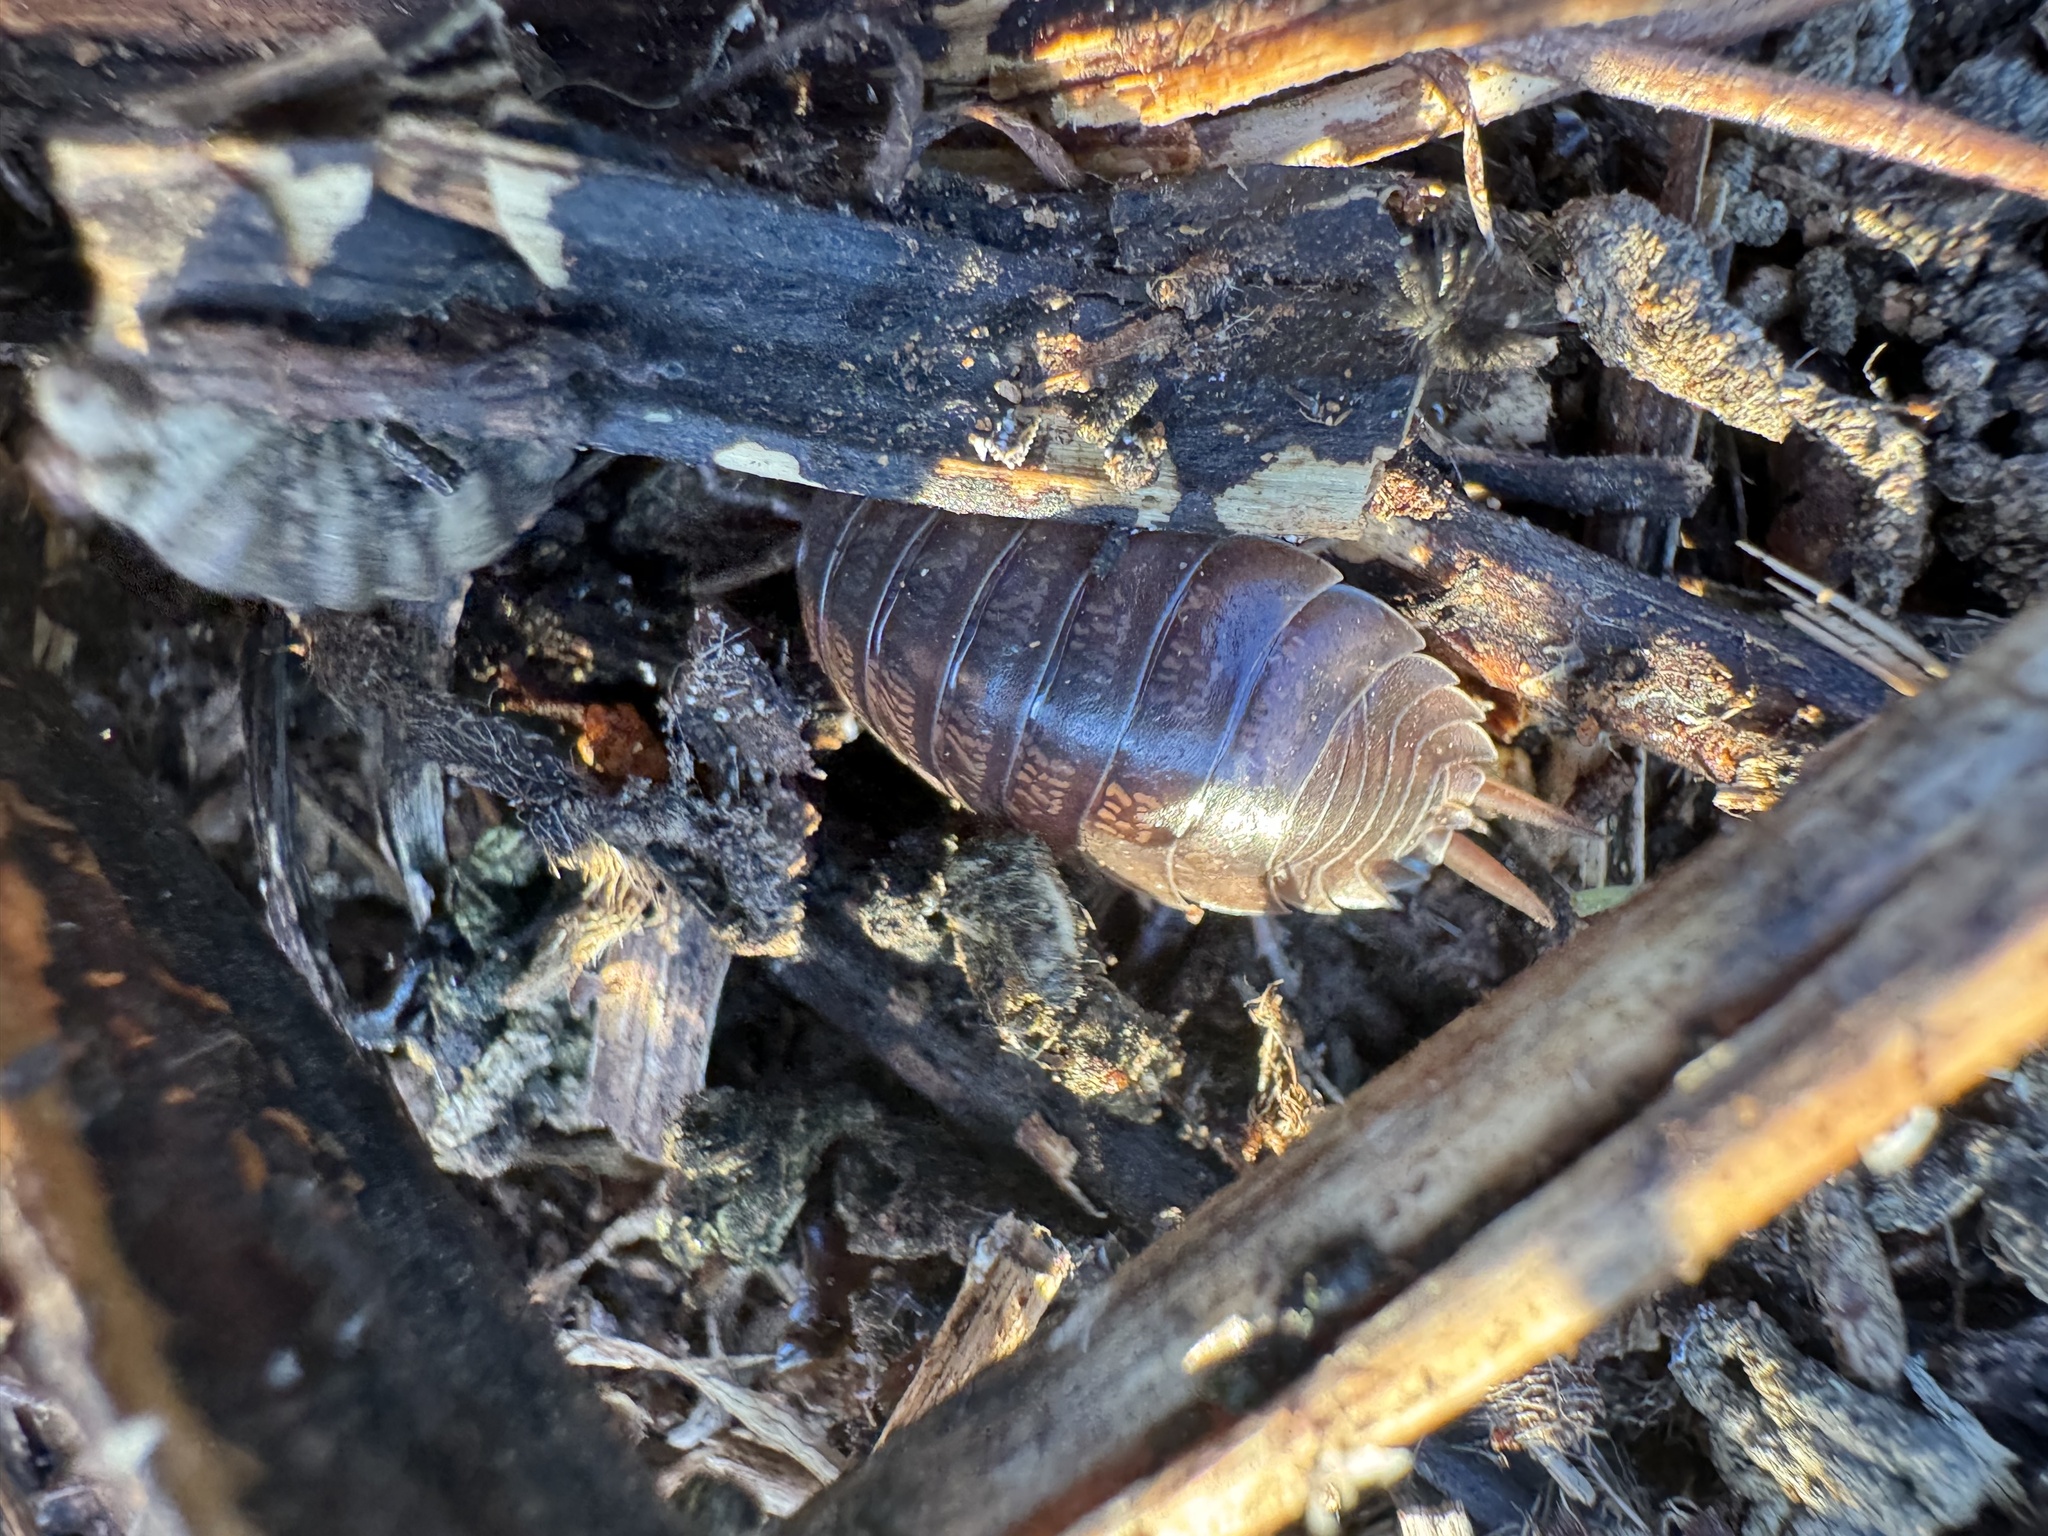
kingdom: Animalia
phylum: Arthropoda
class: Malacostraca
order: Isopoda
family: Porcellionidae
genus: Porcellio
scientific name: Porcellio laevis
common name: Swift woodlouse
